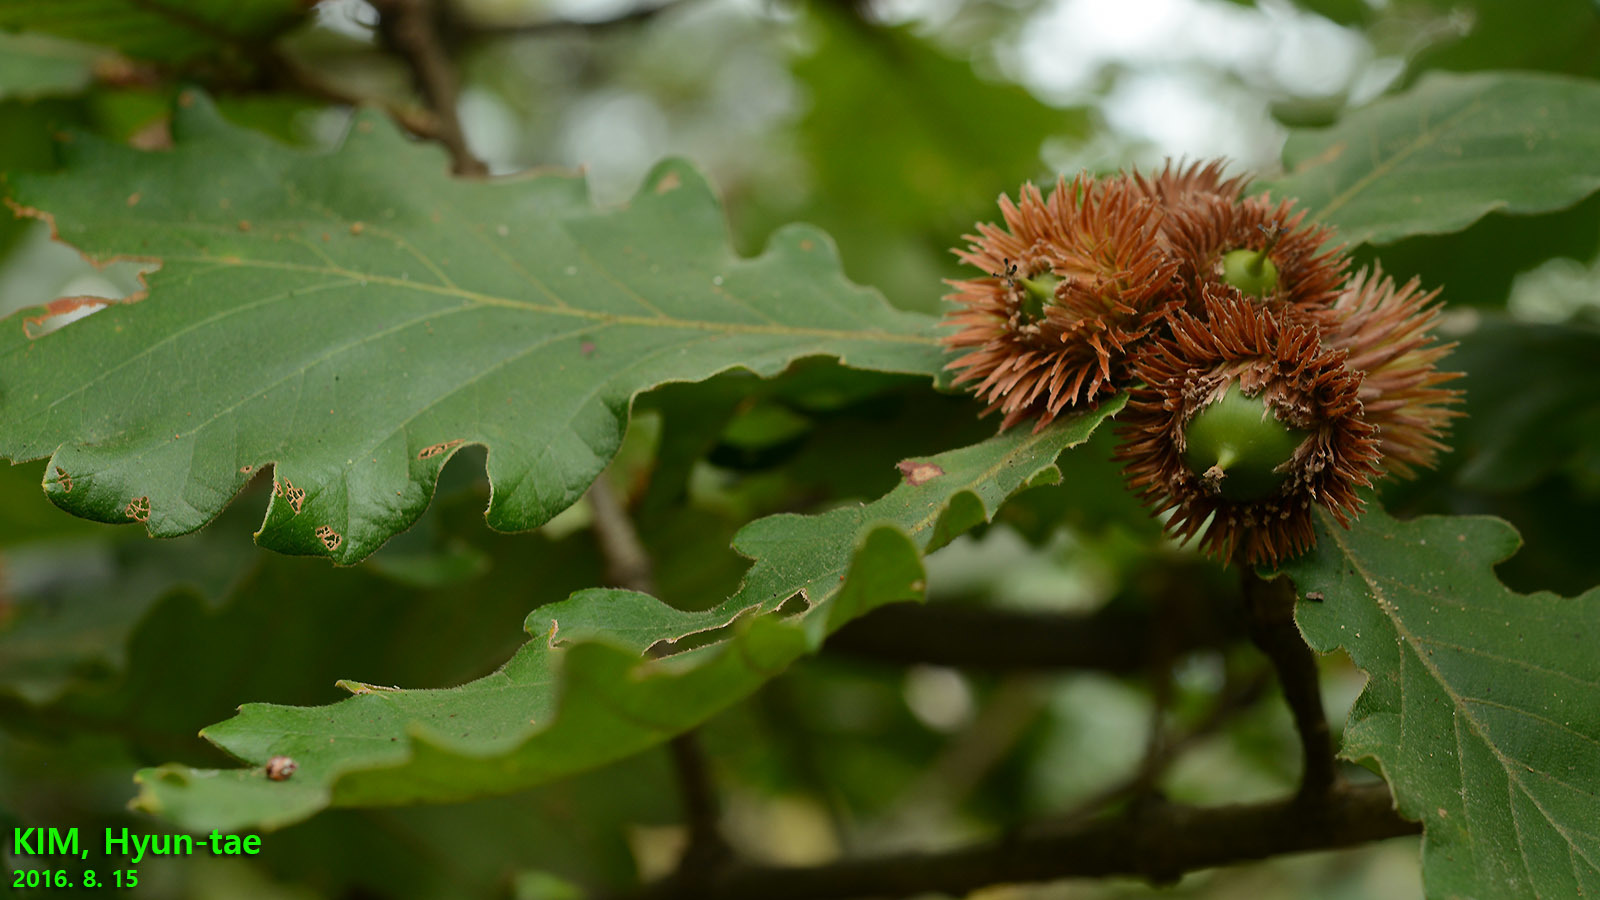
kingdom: Plantae
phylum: Tracheophyta
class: Magnoliopsida
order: Fagales
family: Fagaceae
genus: Quercus
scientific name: Quercus dentata
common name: Daimyo oak
